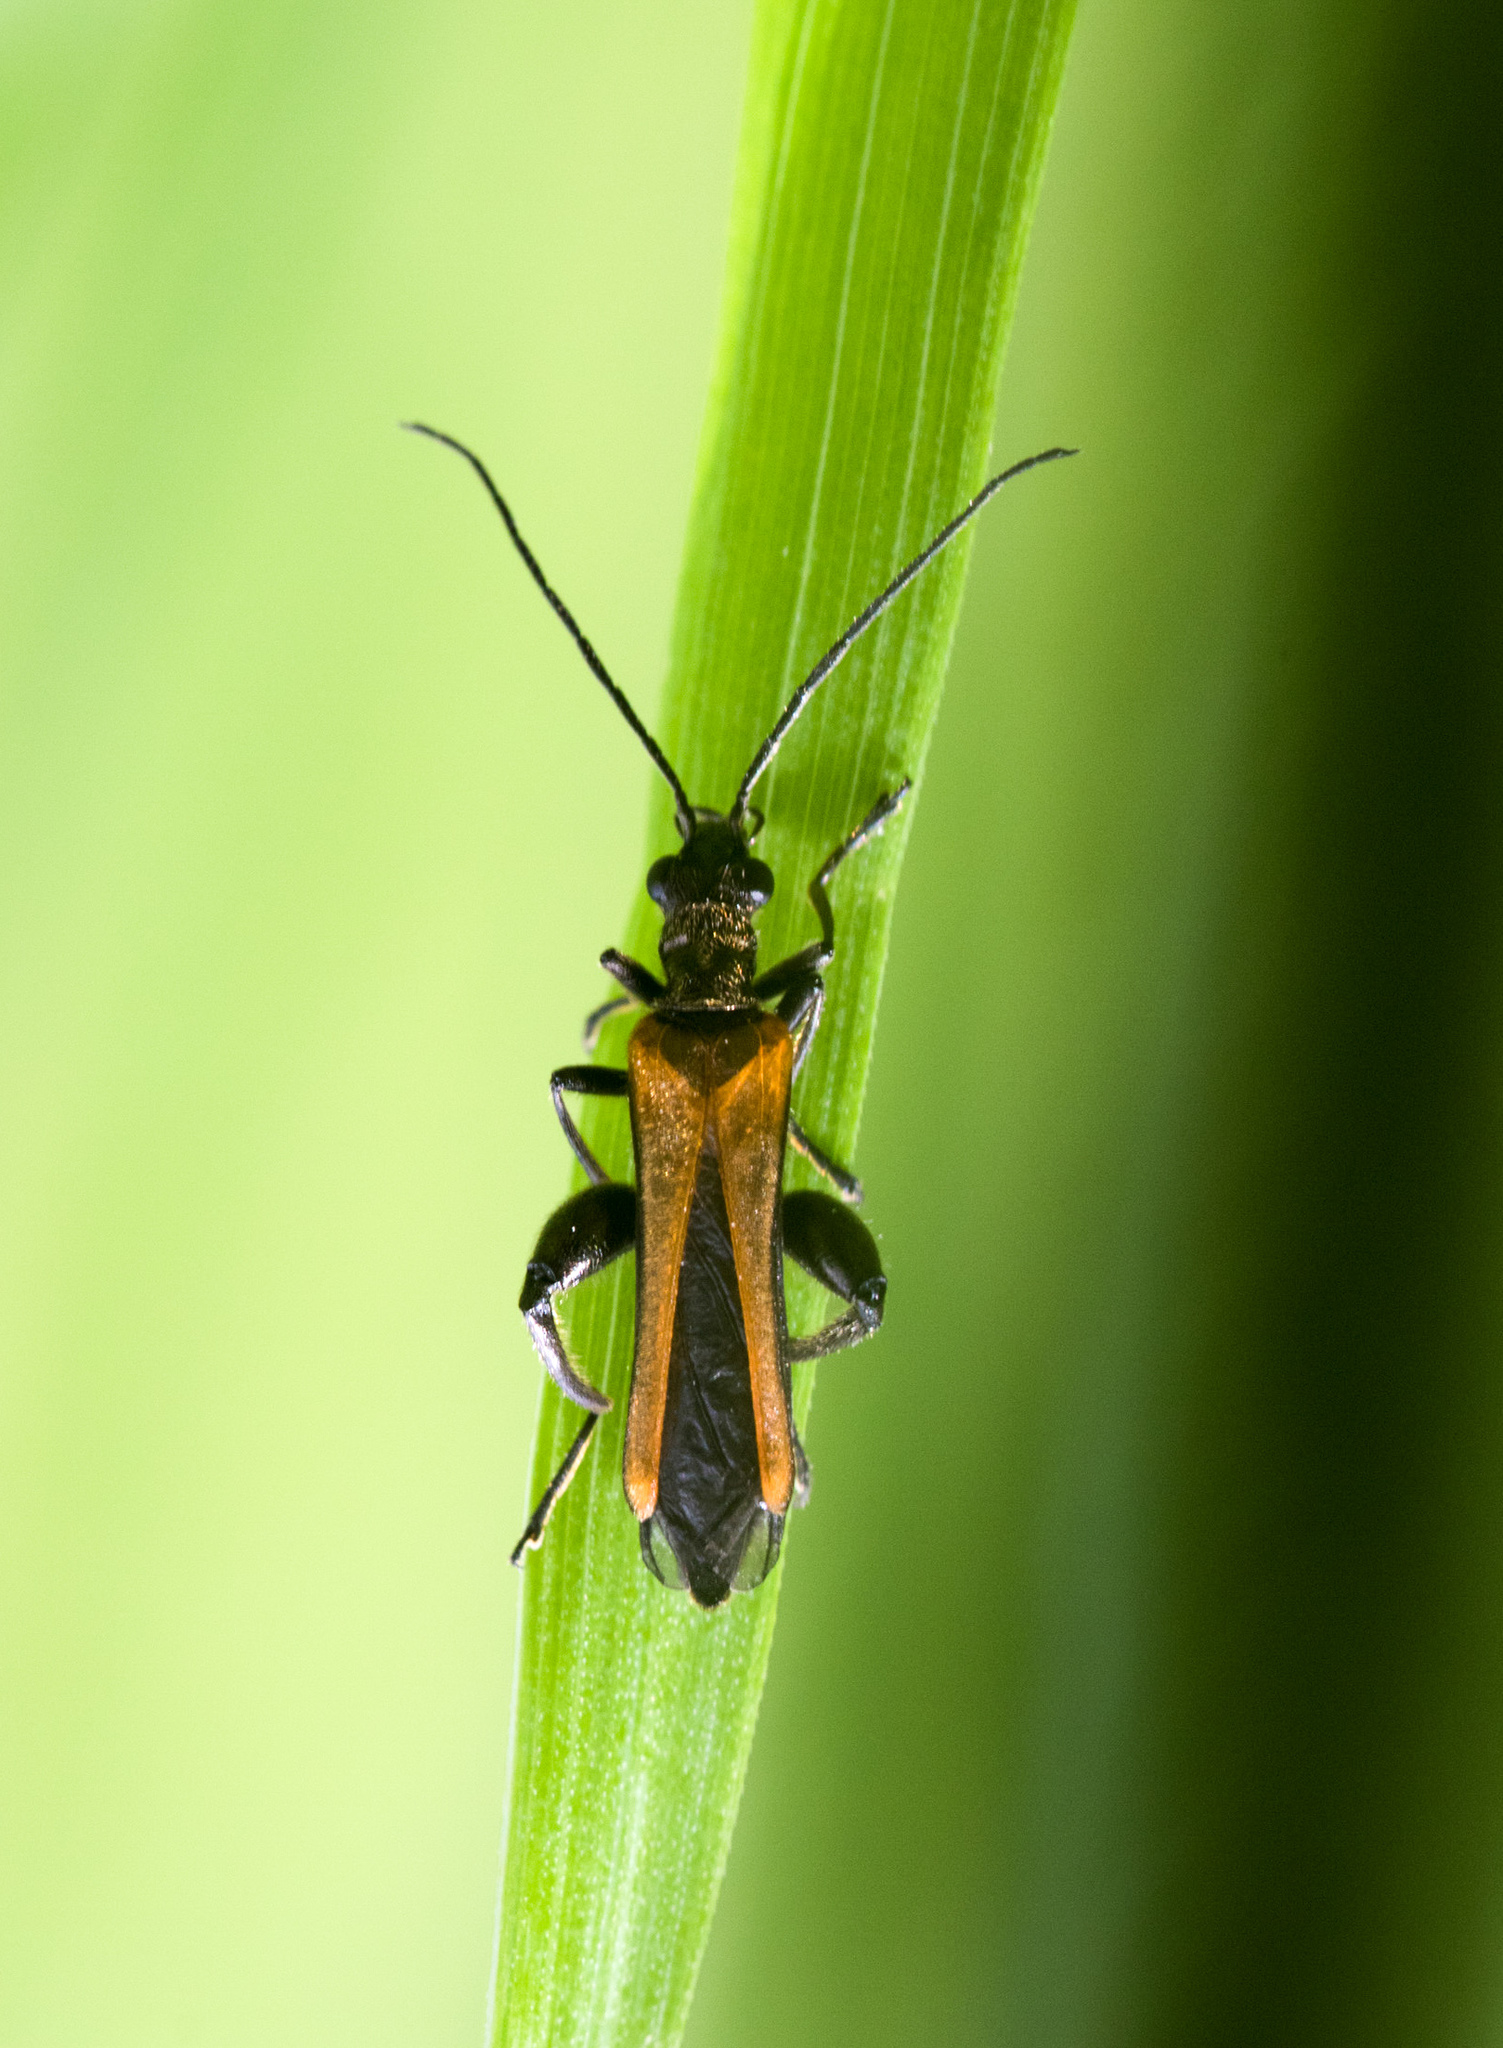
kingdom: Animalia
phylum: Arthropoda
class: Insecta
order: Coleoptera
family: Oedemeridae
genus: Oedemera
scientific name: Oedemera femorata
